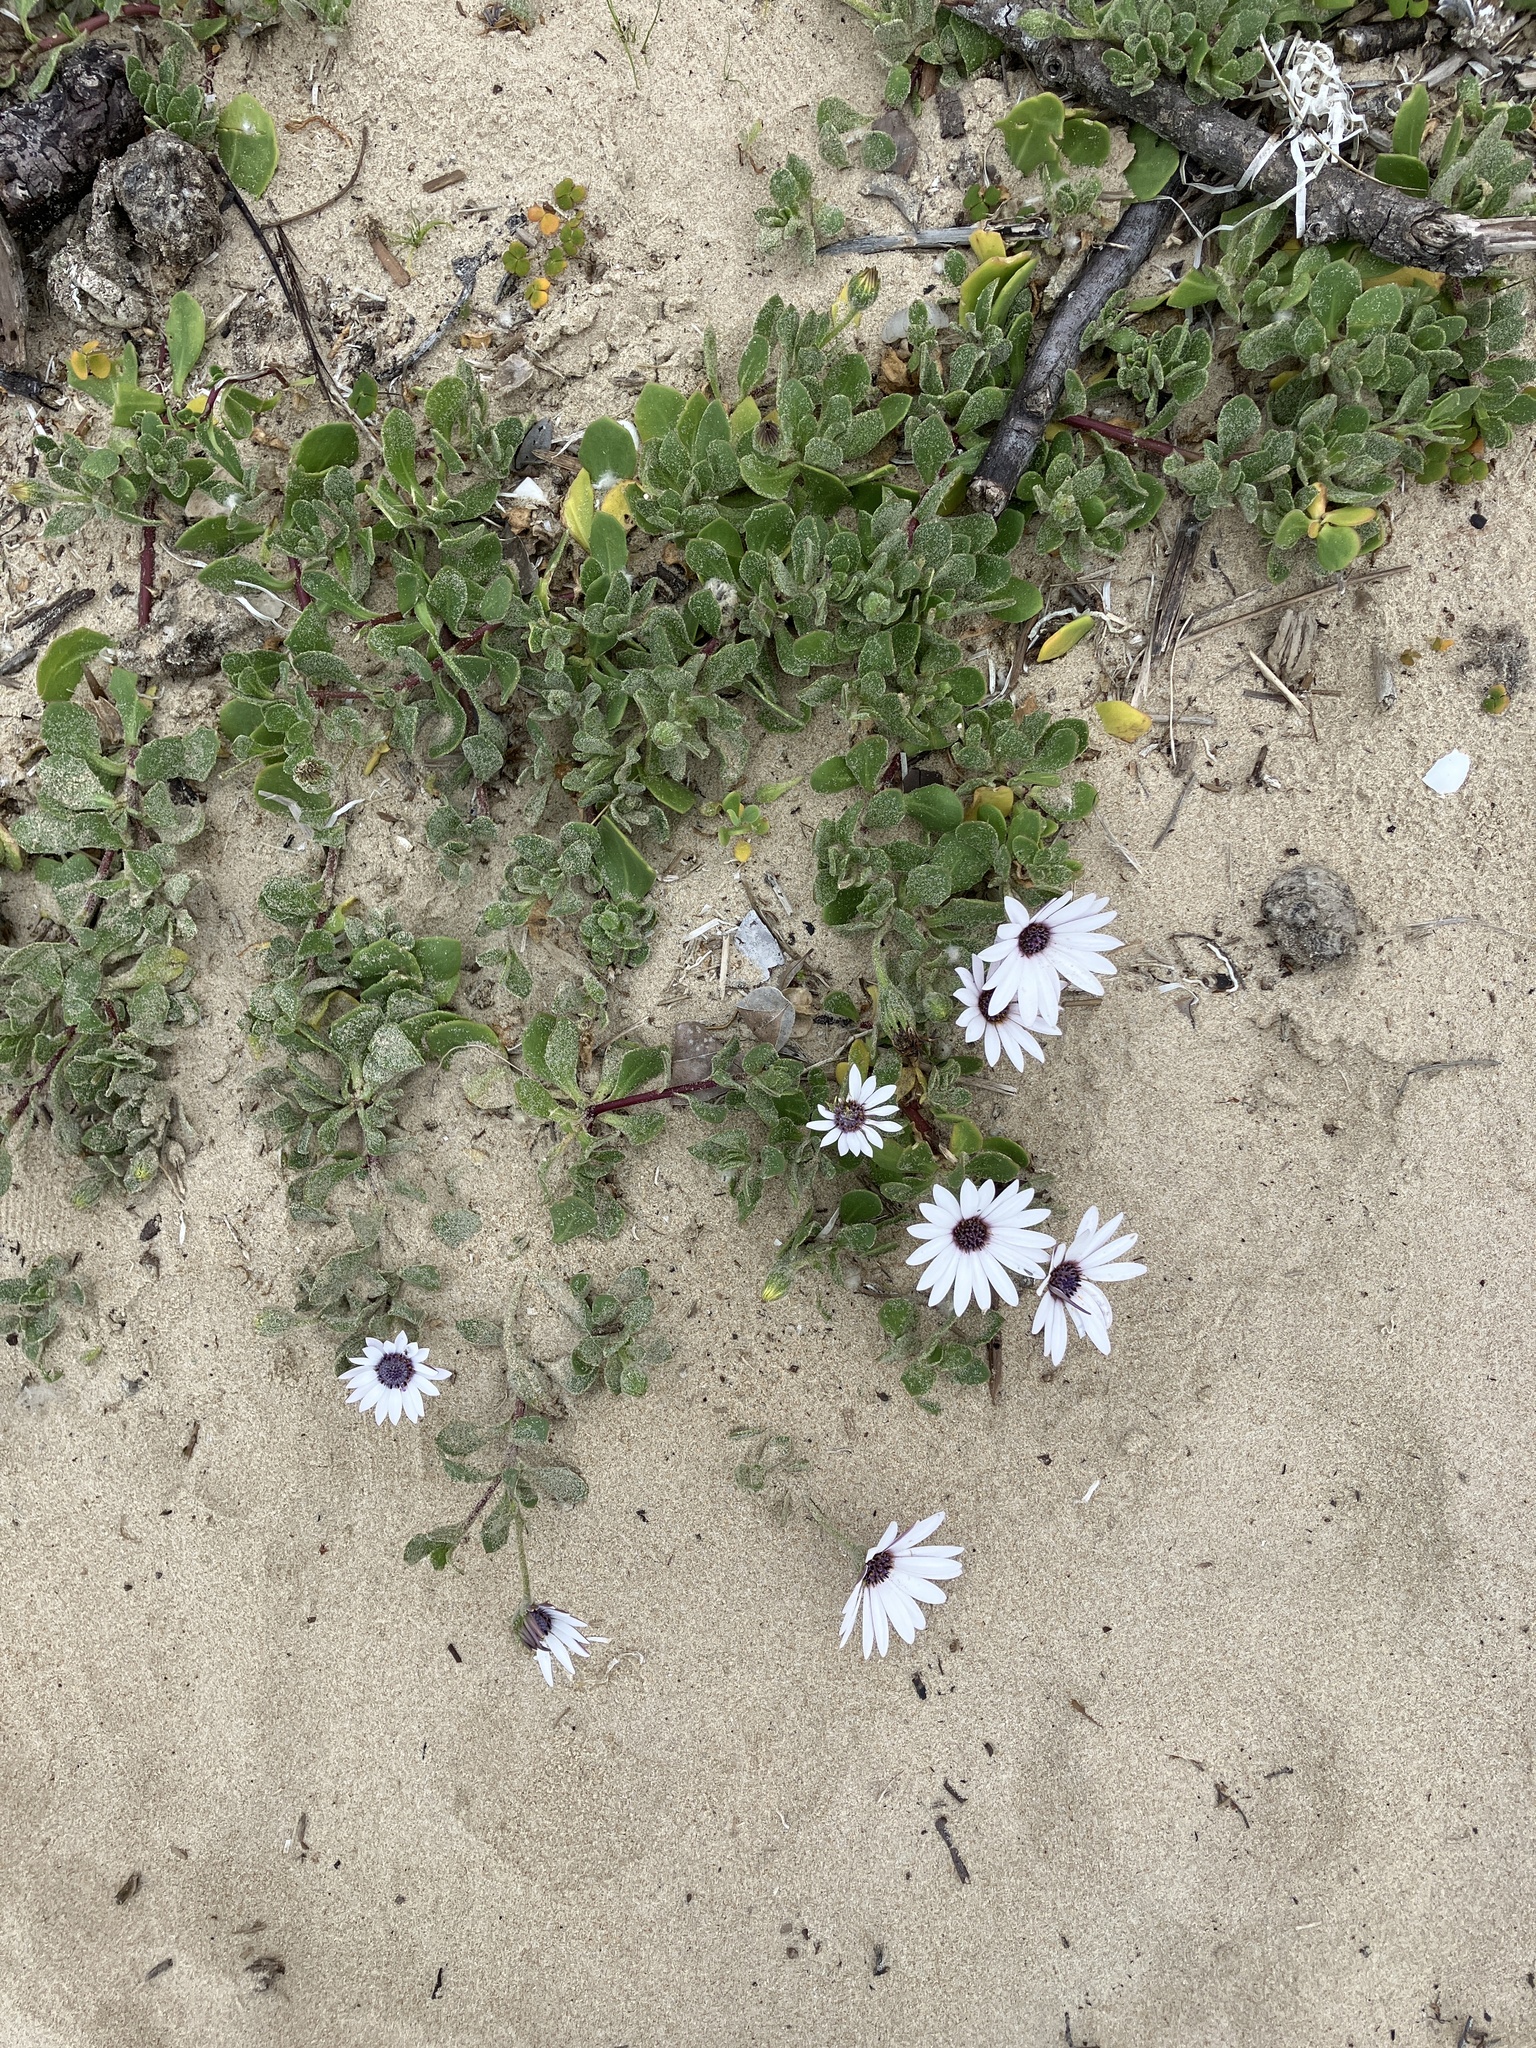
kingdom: Plantae
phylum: Tracheophyta
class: Magnoliopsida
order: Asterales
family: Asteraceae
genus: Dimorphotheca
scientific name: Dimorphotheca fruticosa
